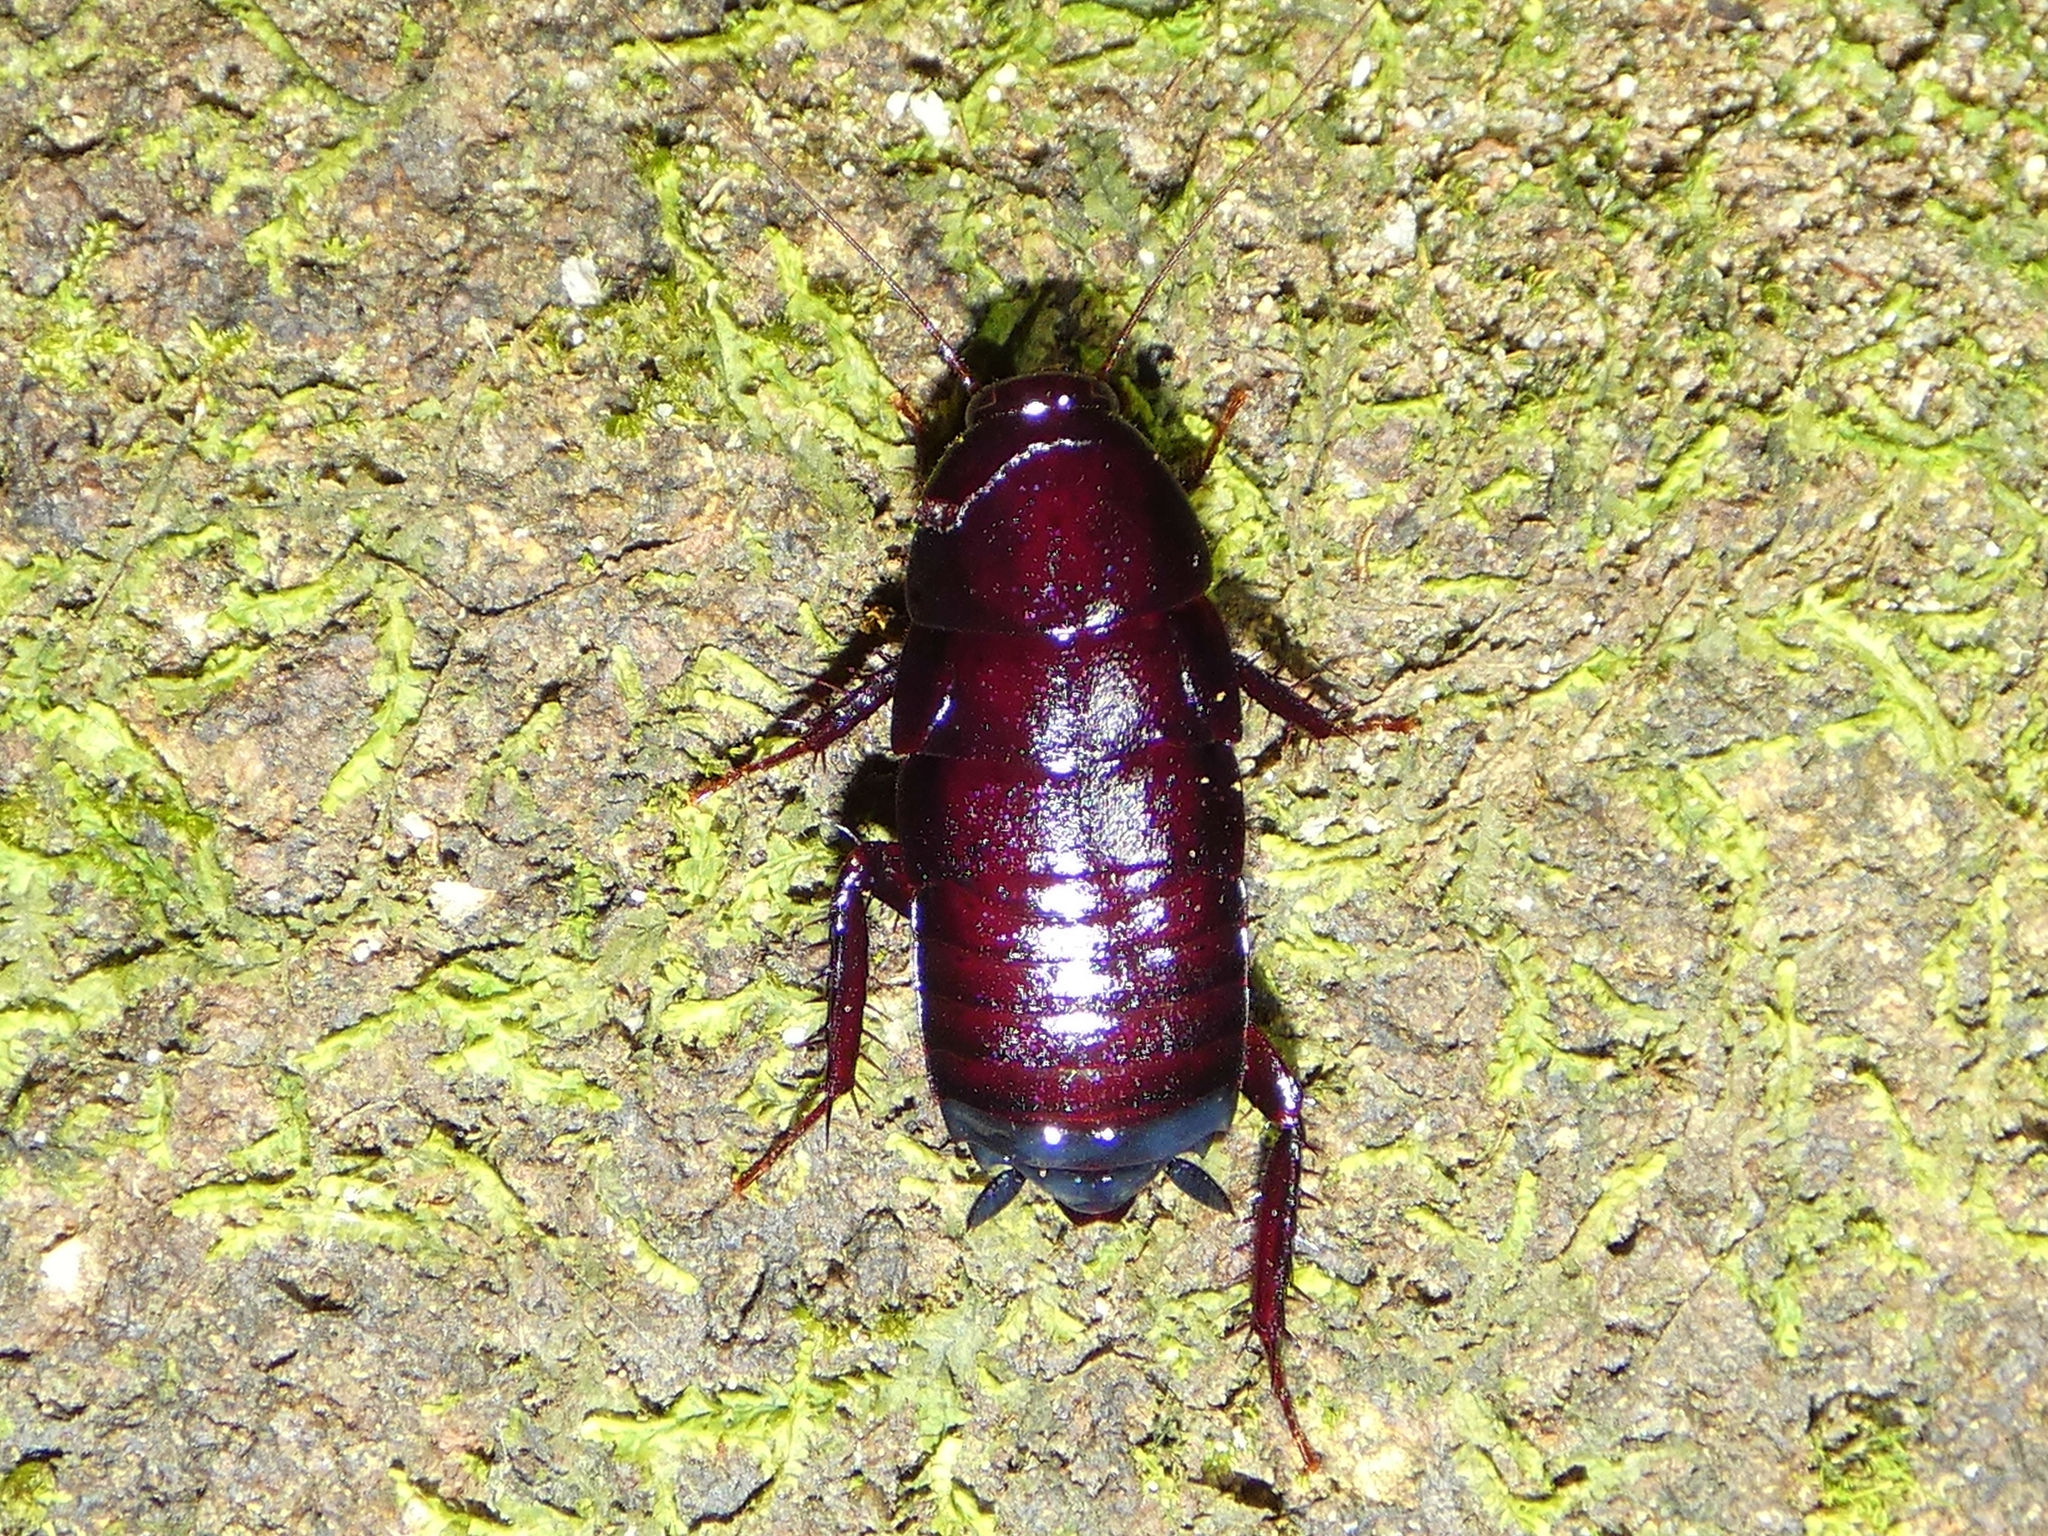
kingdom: Animalia
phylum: Arthropoda
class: Insecta
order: Blattodea
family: Blattidae
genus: Celatoblatta
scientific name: Celatoblatta
